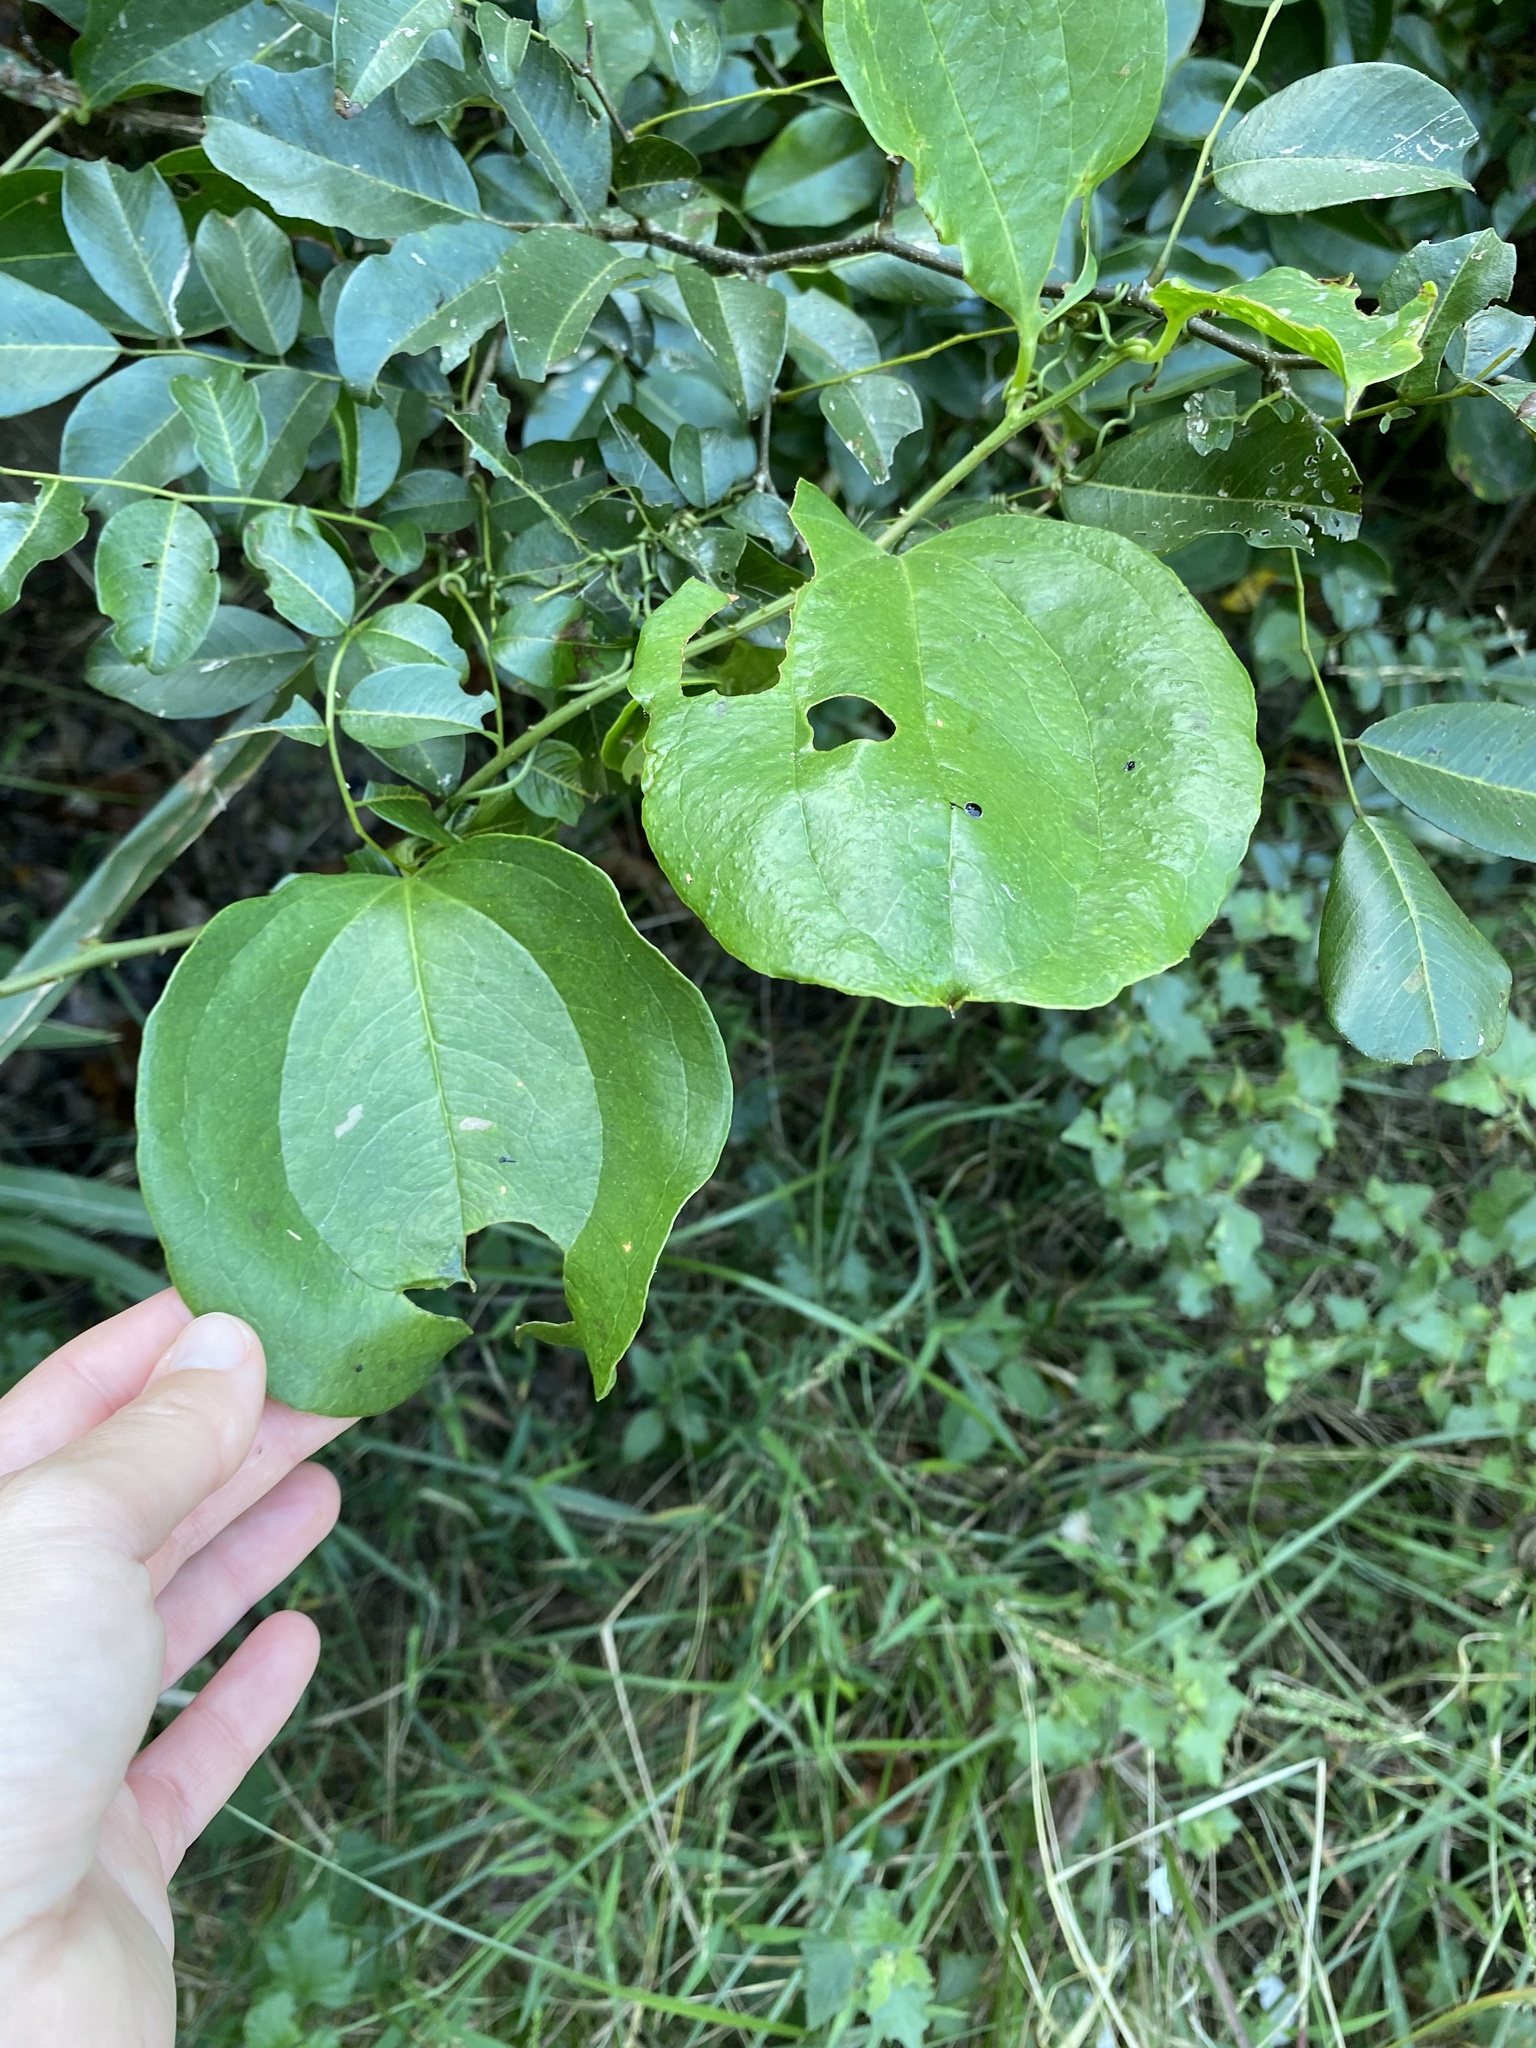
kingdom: Plantae
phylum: Tracheophyta
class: Liliopsida
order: Liliales
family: Smilacaceae
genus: Smilax
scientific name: Smilax anceps
